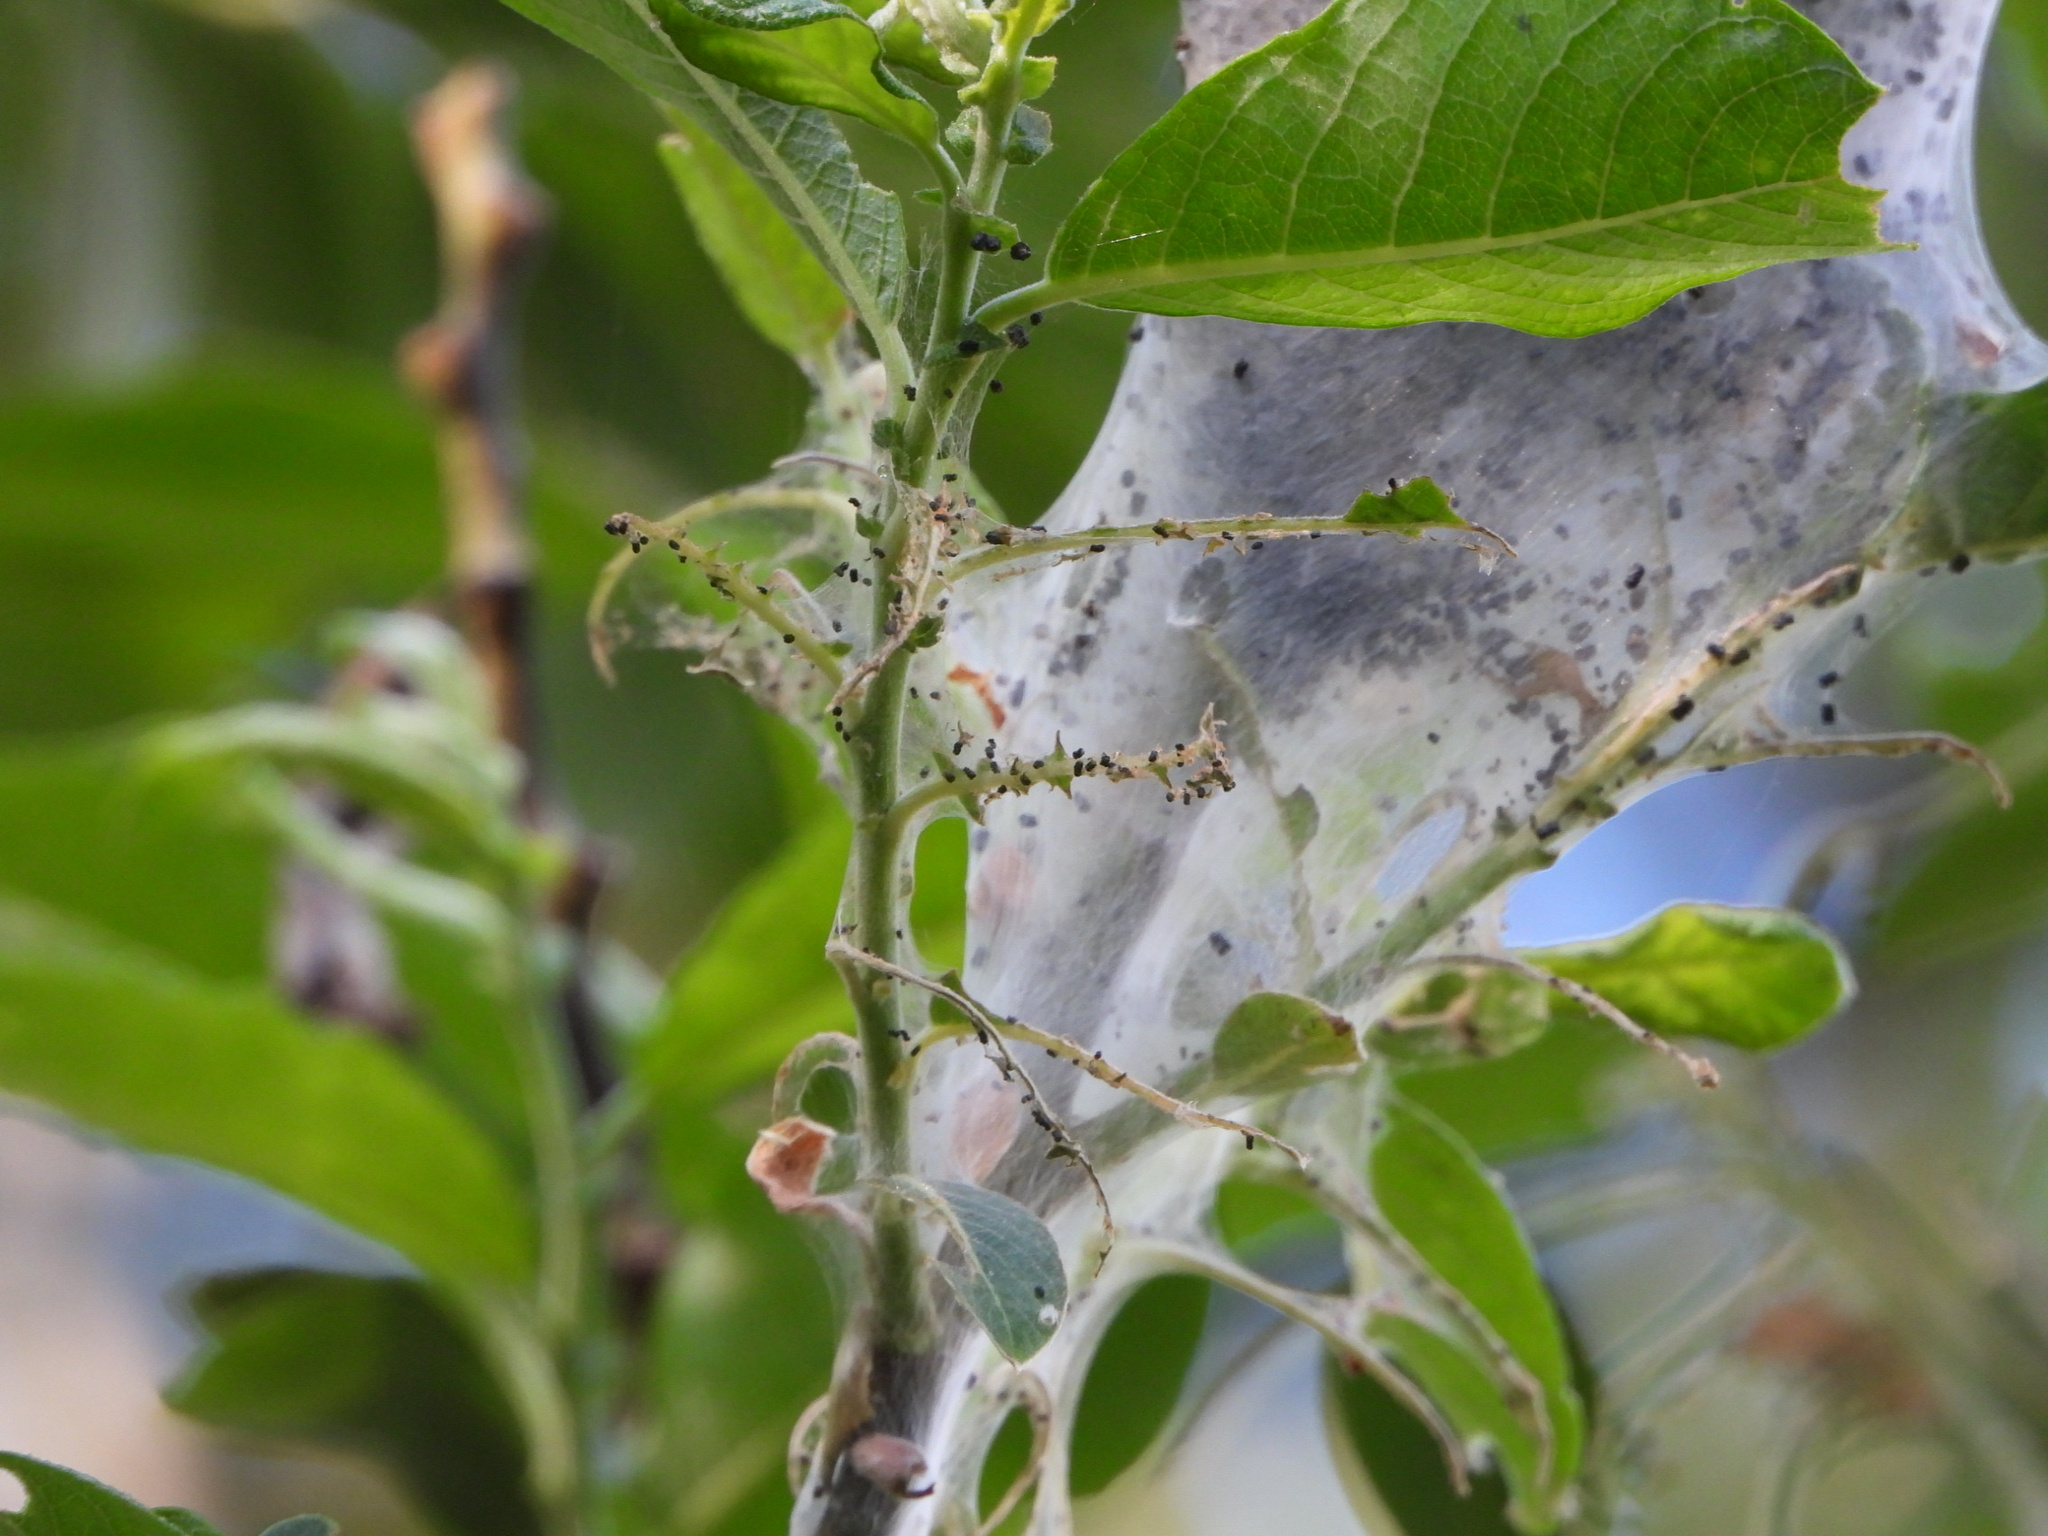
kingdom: Animalia
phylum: Arthropoda
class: Insecta
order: Lepidoptera
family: Lasiocampidae
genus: Malacosoma
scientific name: Malacosoma californica
